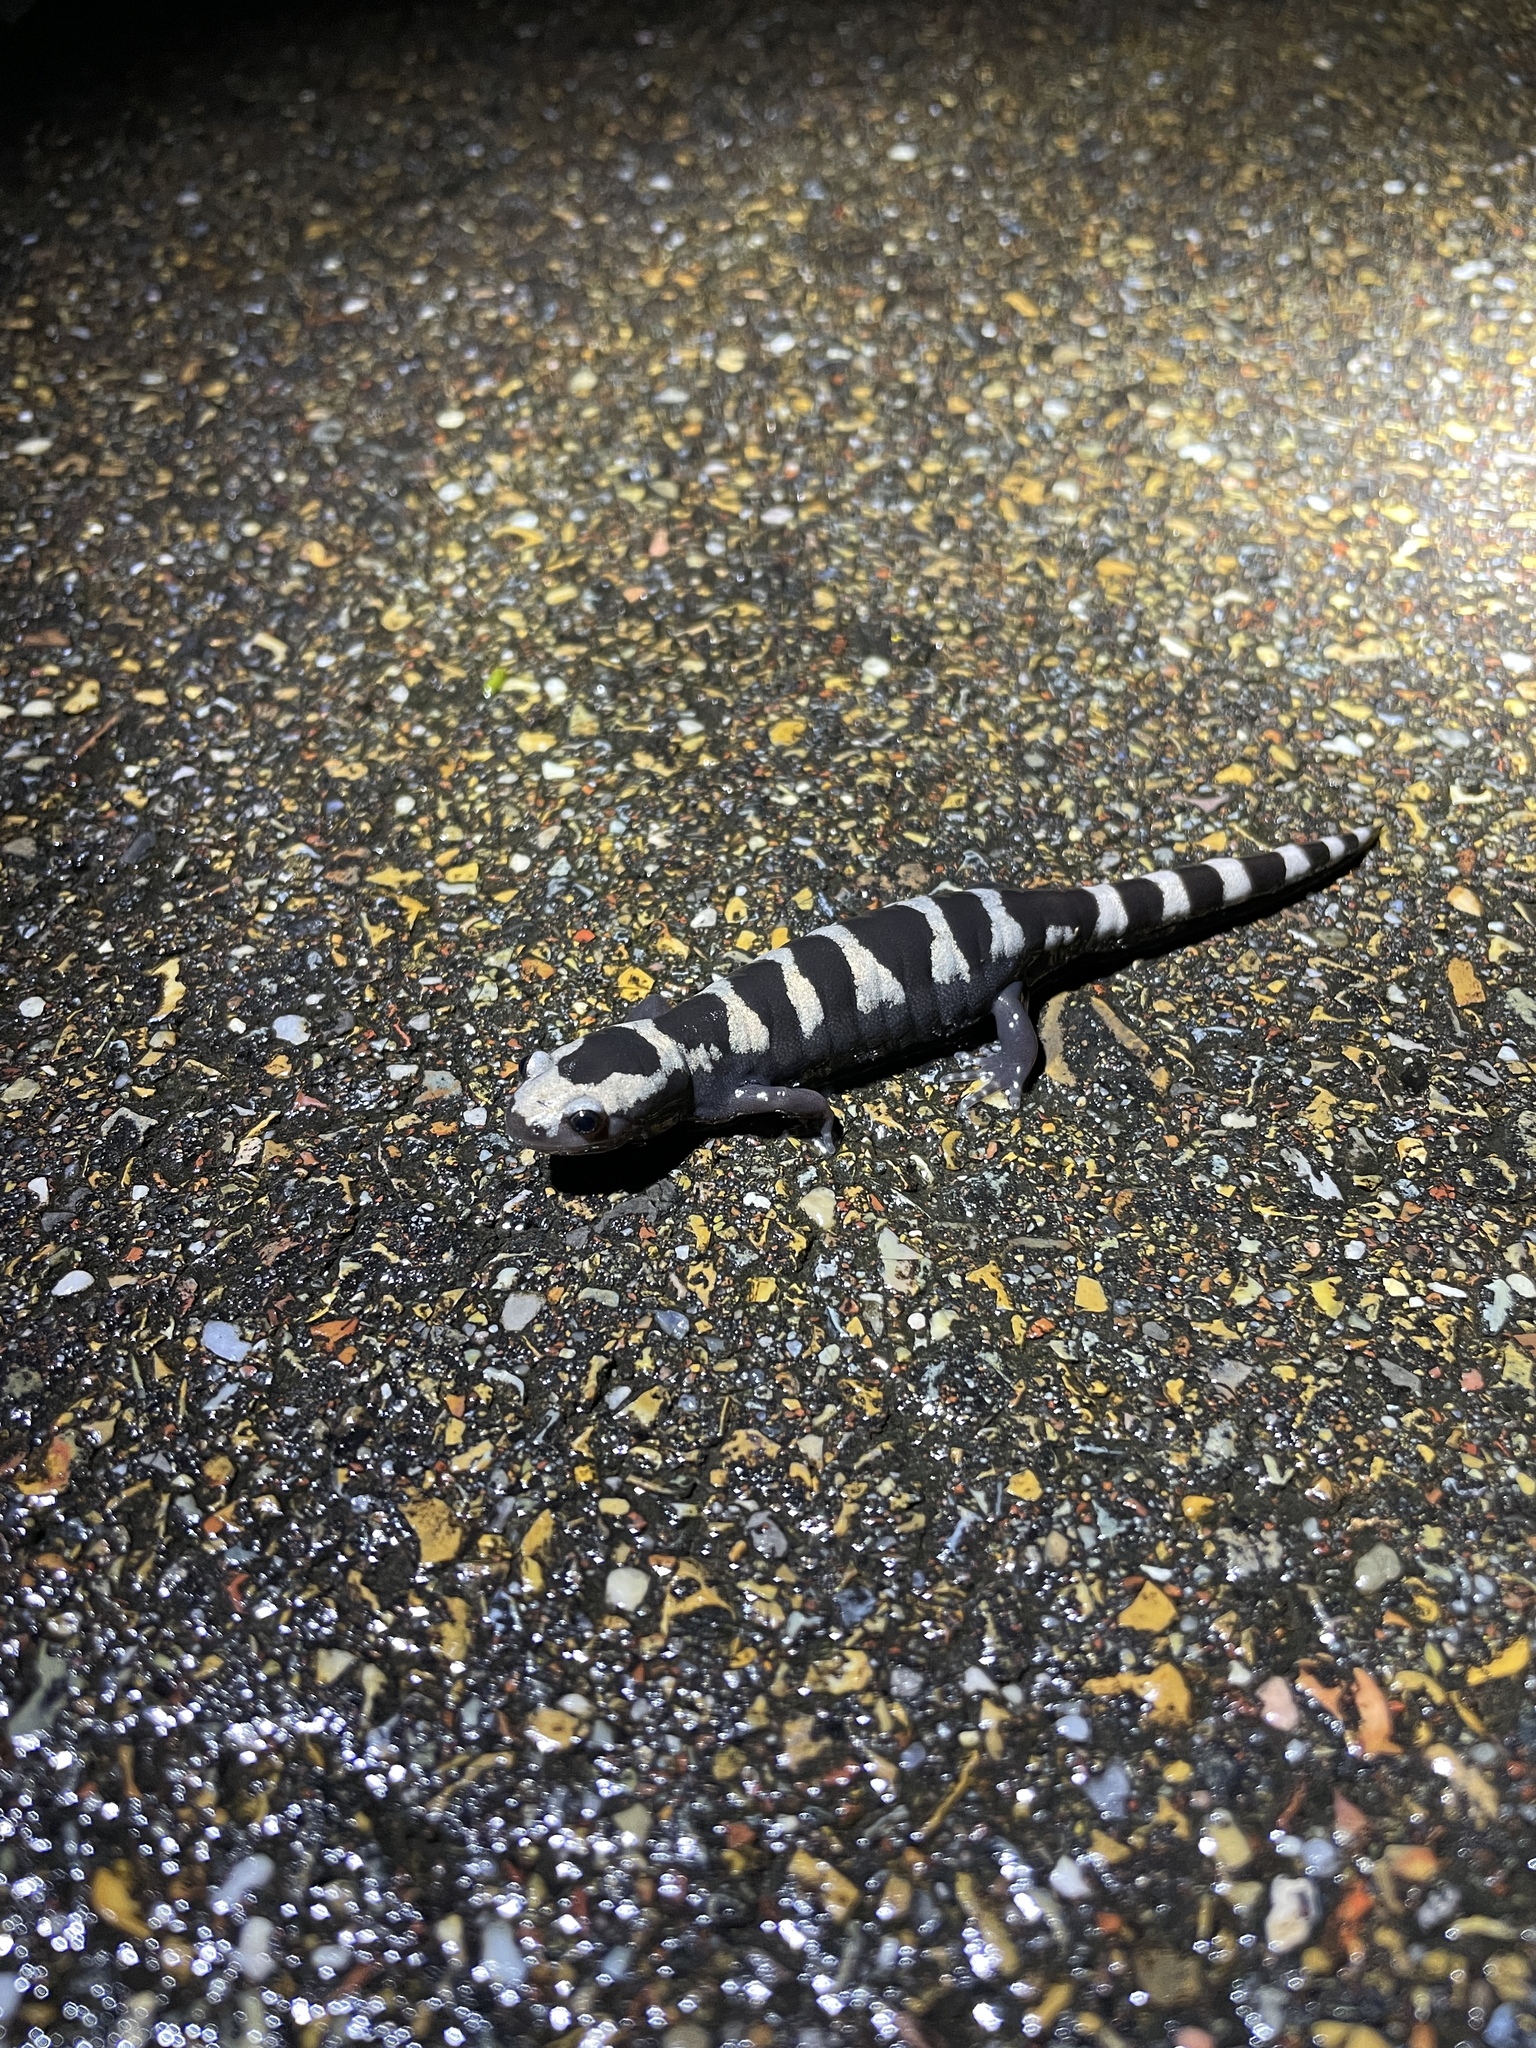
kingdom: Animalia
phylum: Chordata
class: Amphibia
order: Caudata
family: Ambystomatidae
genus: Ambystoma
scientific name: Ambystoma opacum
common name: Marbled salamander
